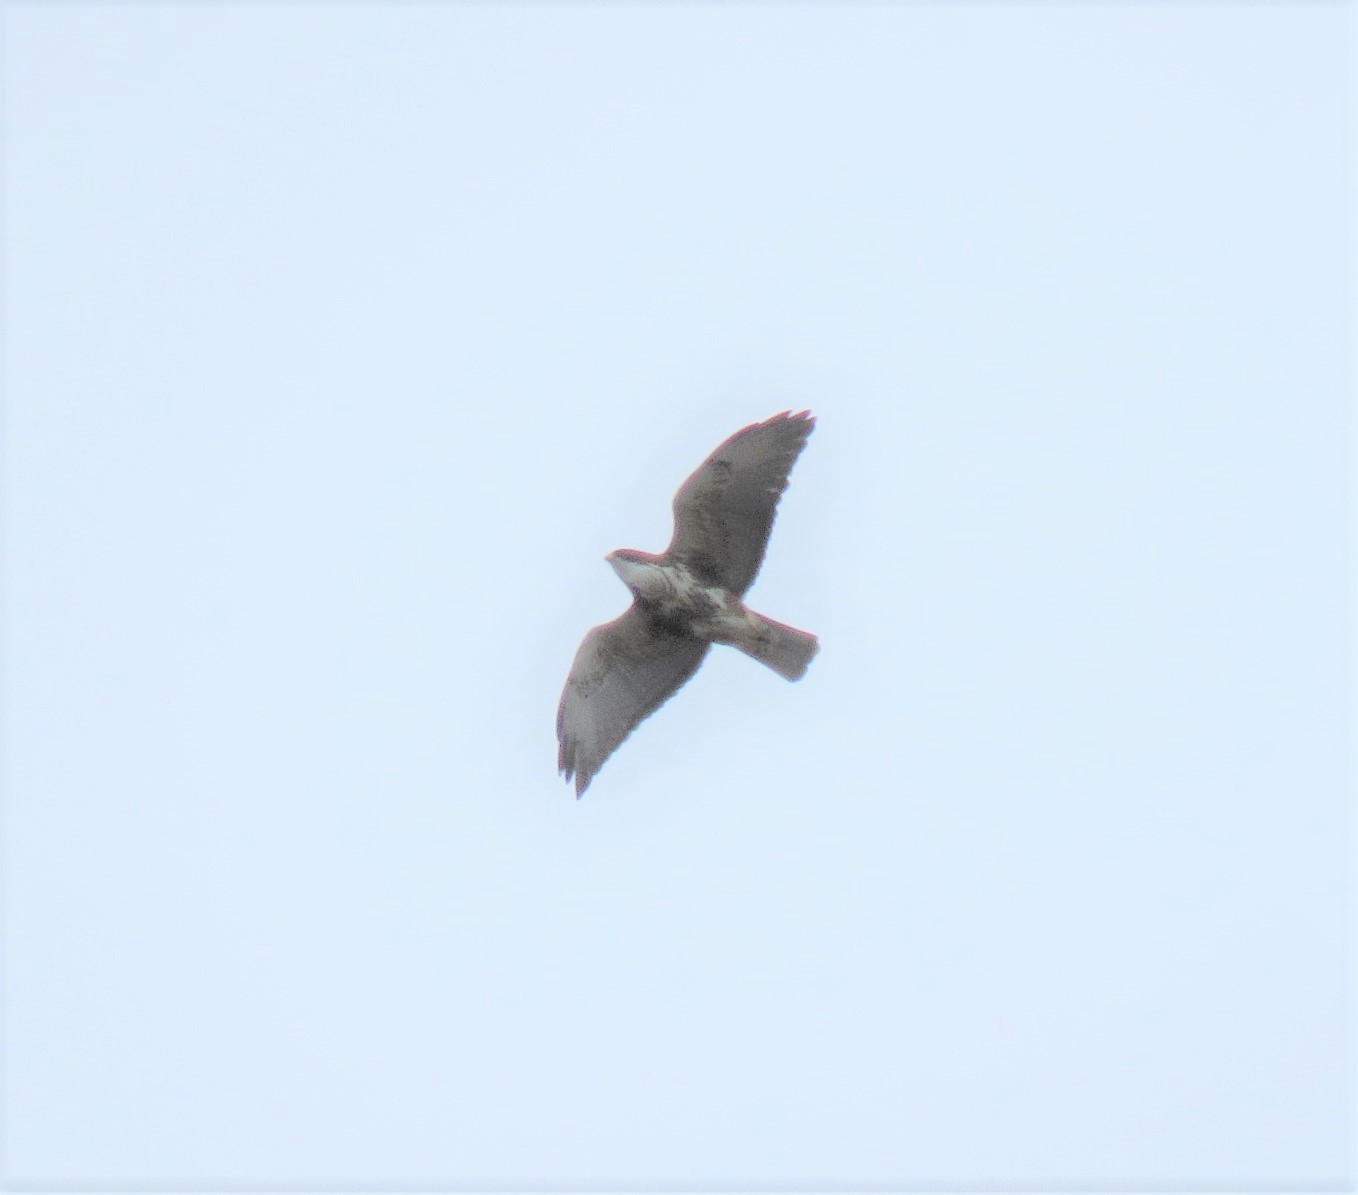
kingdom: Animalia
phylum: Chordata
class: Aves
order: Accipitriformes
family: Accipitridae
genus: Buteo
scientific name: Buteo albigula
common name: White-throated hawk
